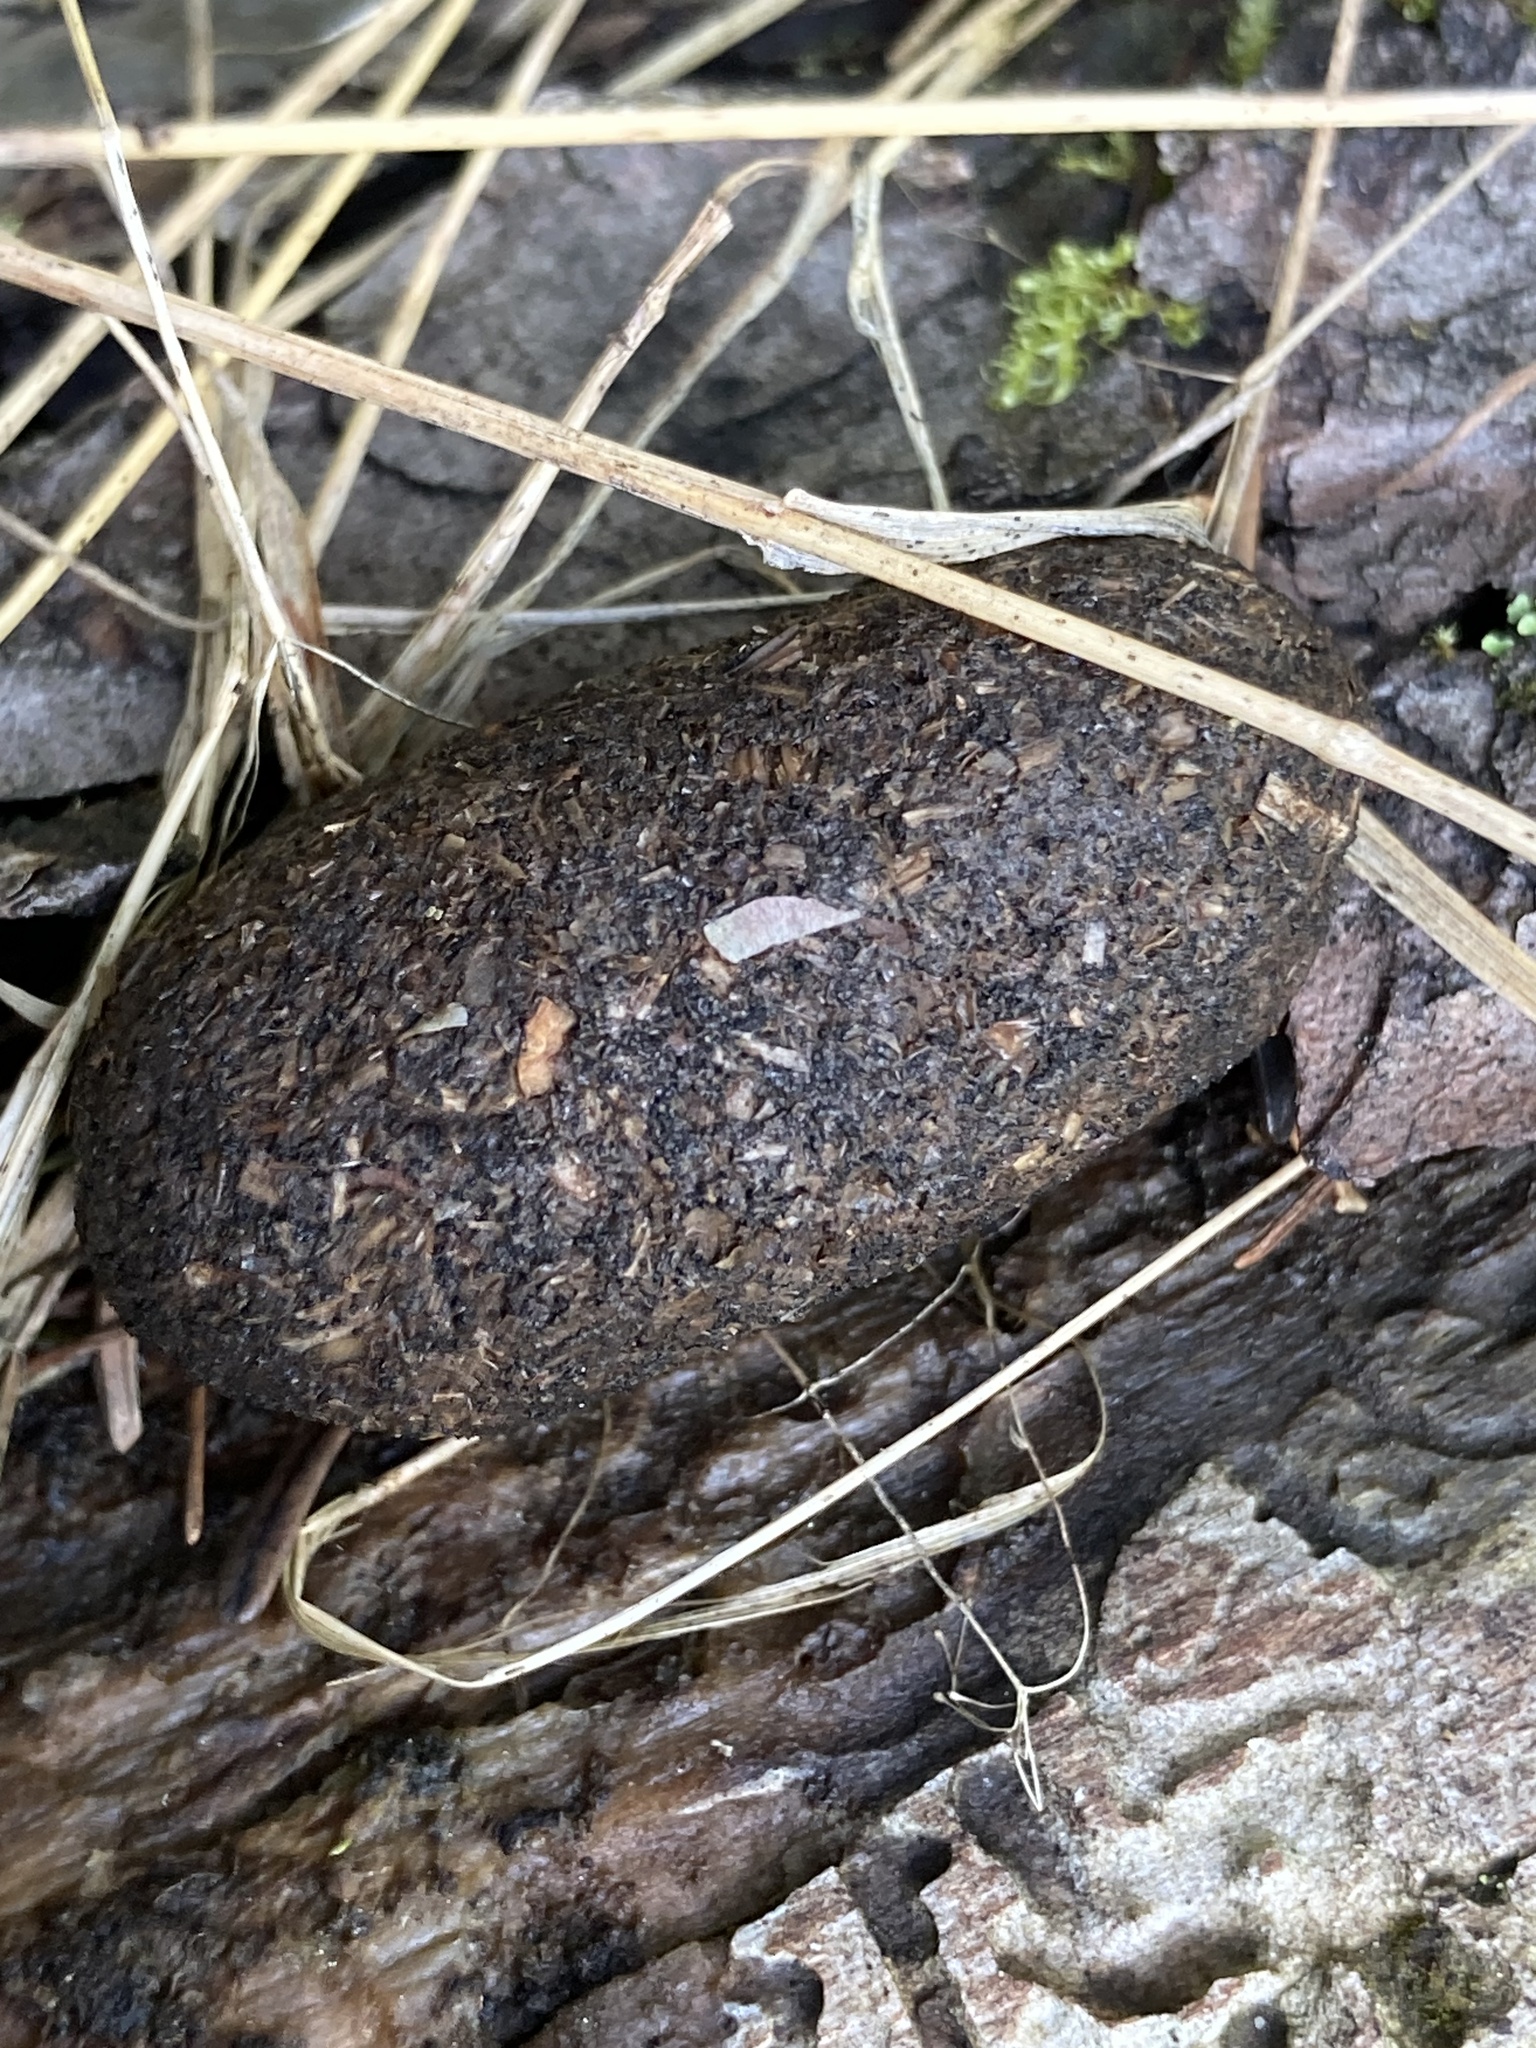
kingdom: Animalia
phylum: Chordata
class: Mammalia
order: Artiodactyla
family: Cervidae
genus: Alces
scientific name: Alces alces
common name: Moose
